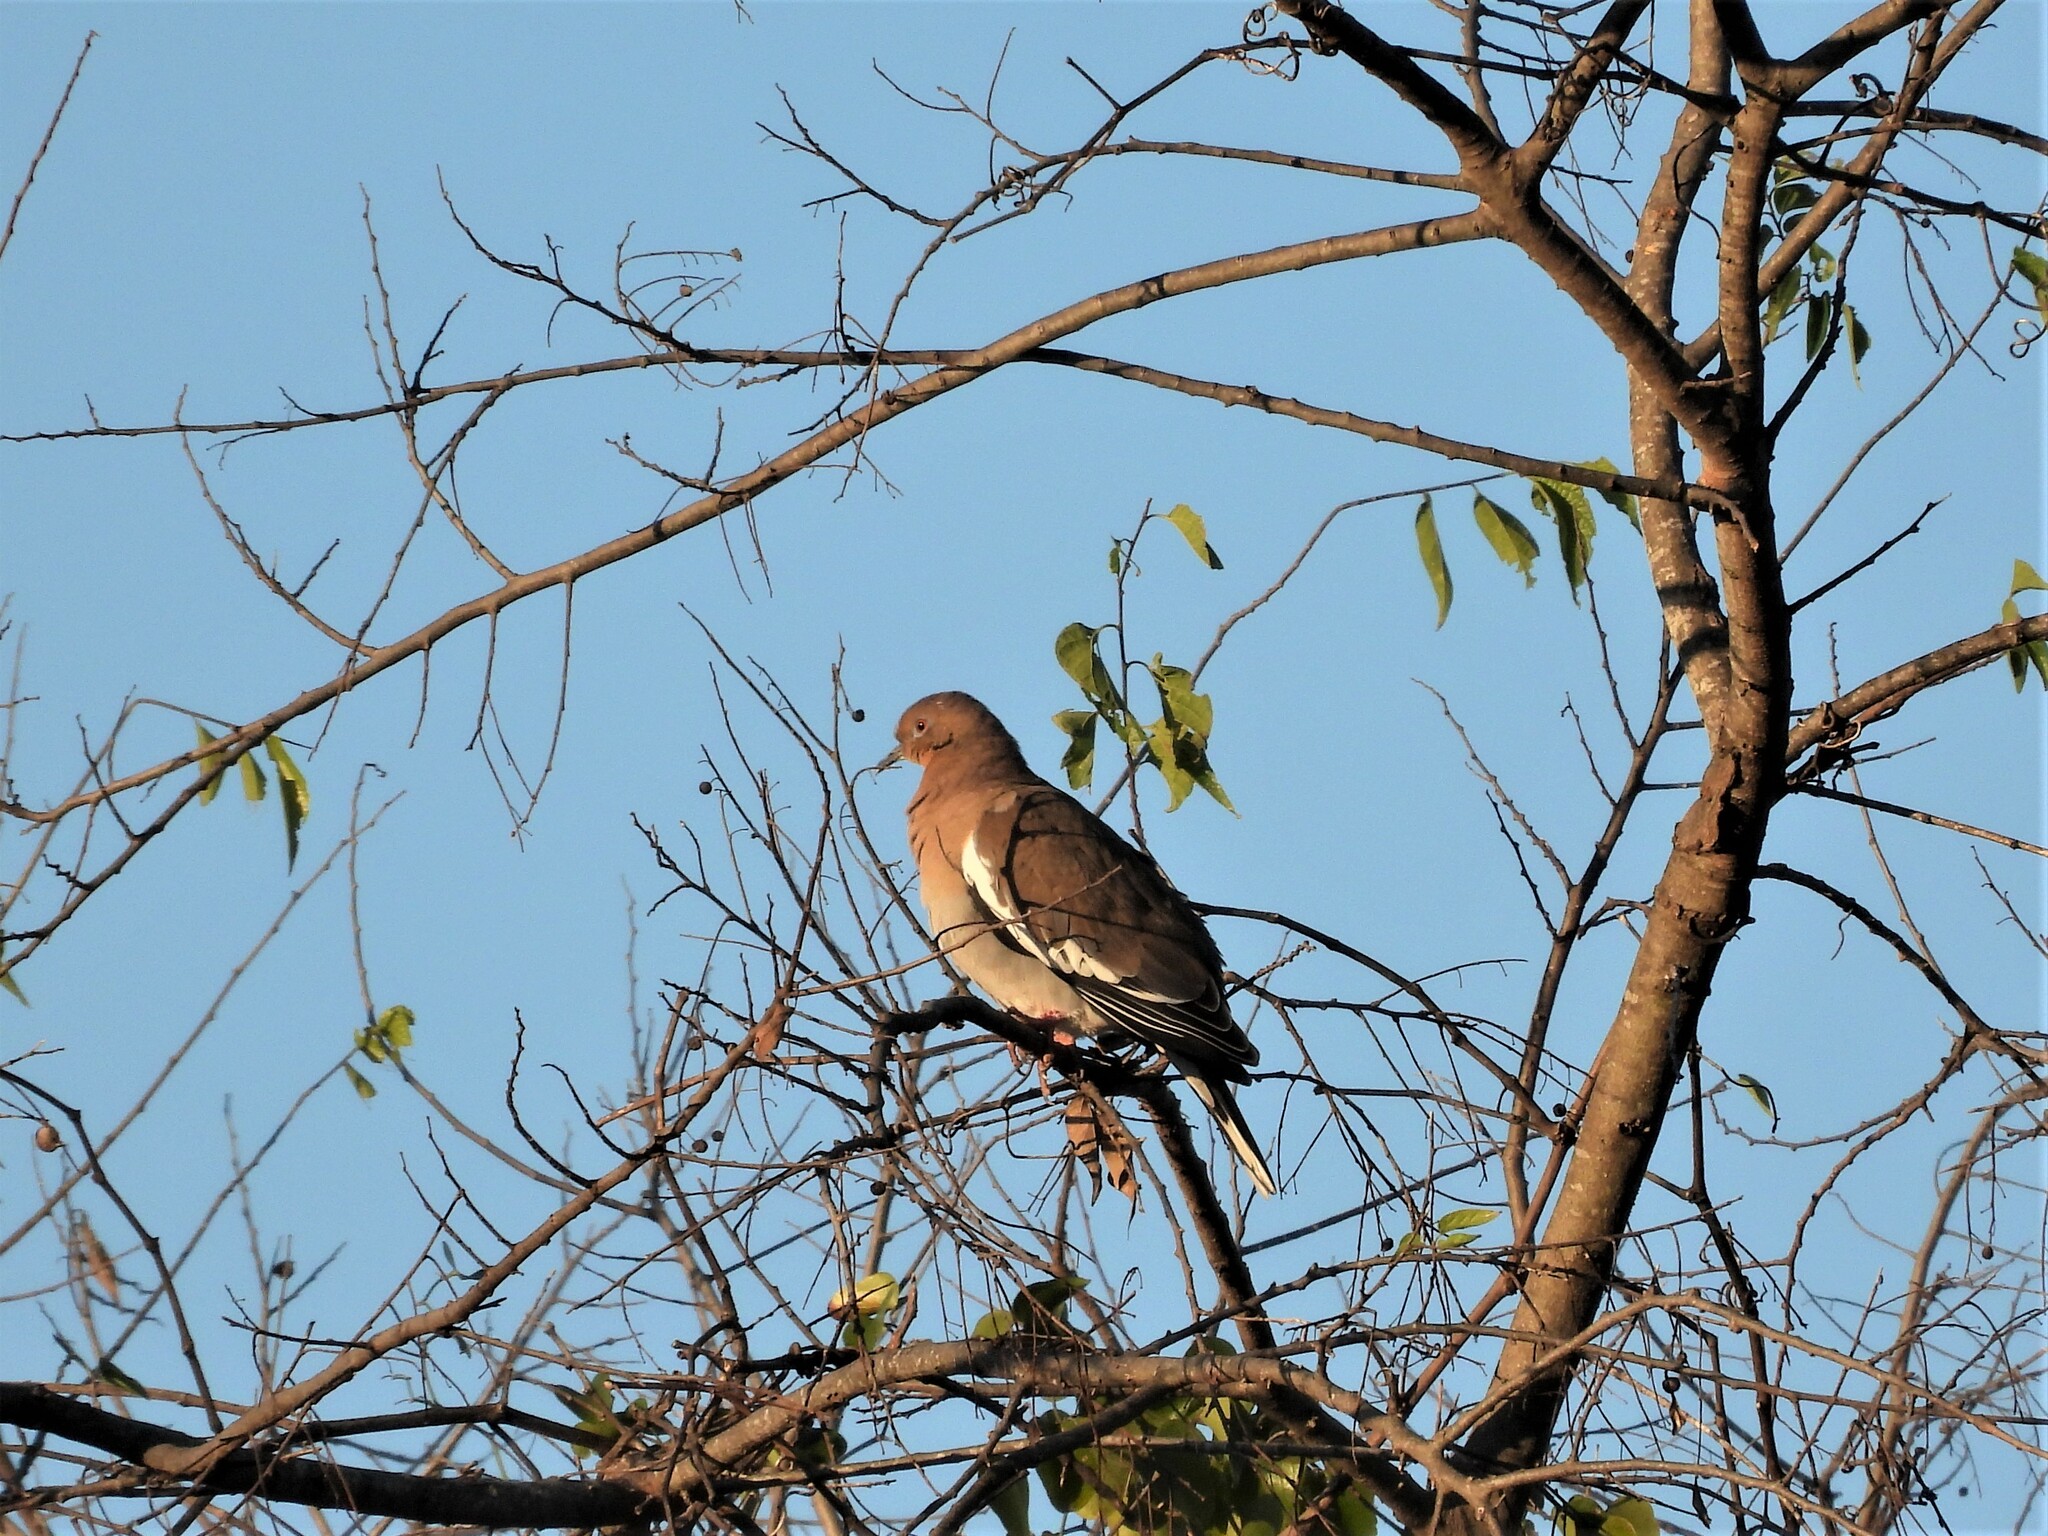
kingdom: Animalia
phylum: Chordata
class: Aves
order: Columbiformes
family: Columbidae
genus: Zenaida
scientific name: Zenaida asiatica
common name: White-winged dove
